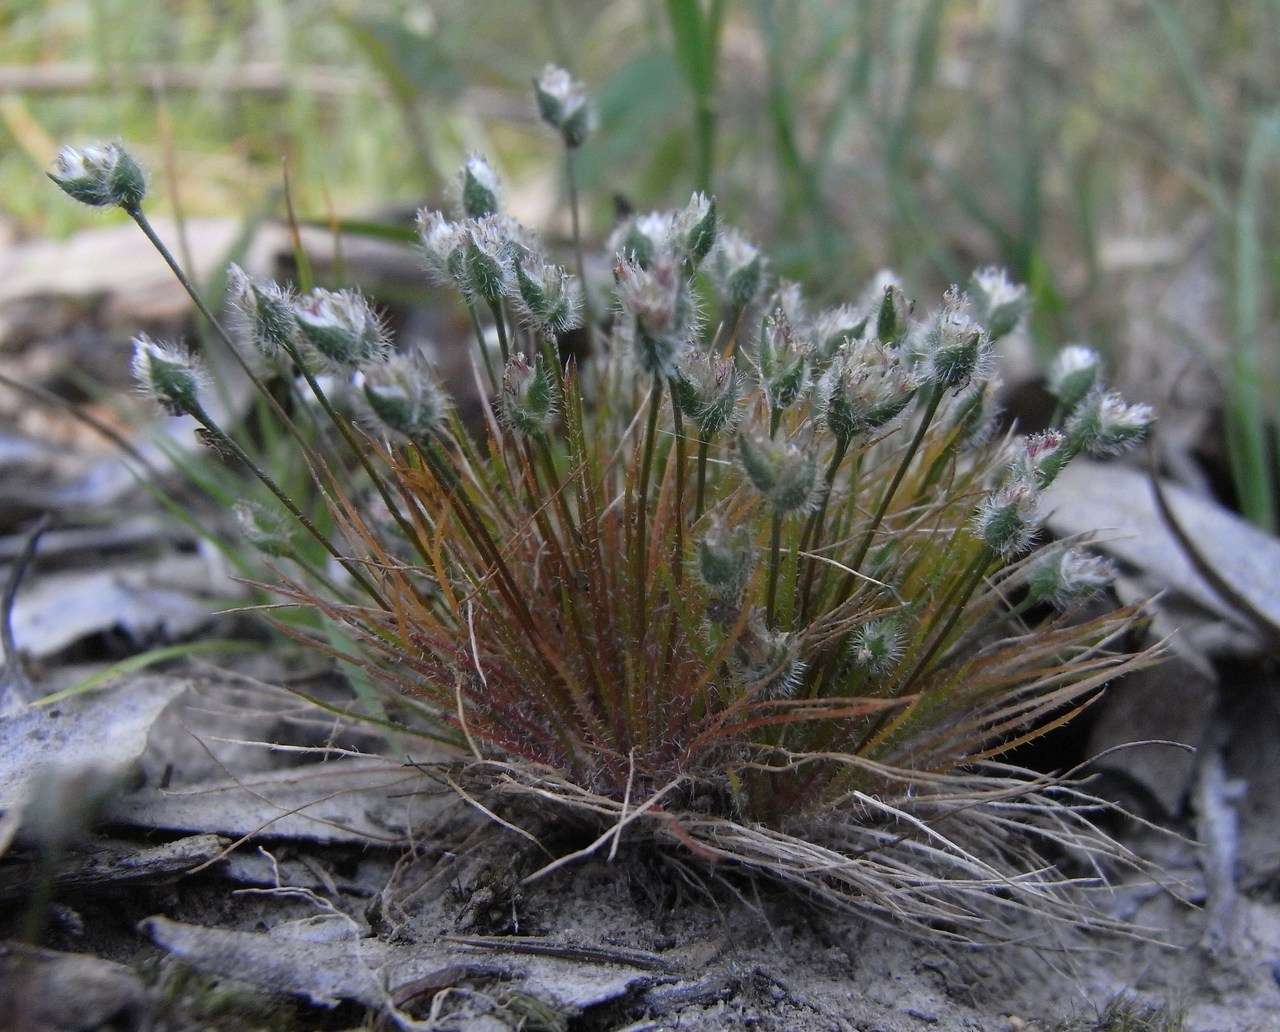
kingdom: Plantae
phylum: Tracheophyta
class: Liliopsida
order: Poales
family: Restionaceae
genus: Centrolepis
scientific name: Centrolepis strigosa
